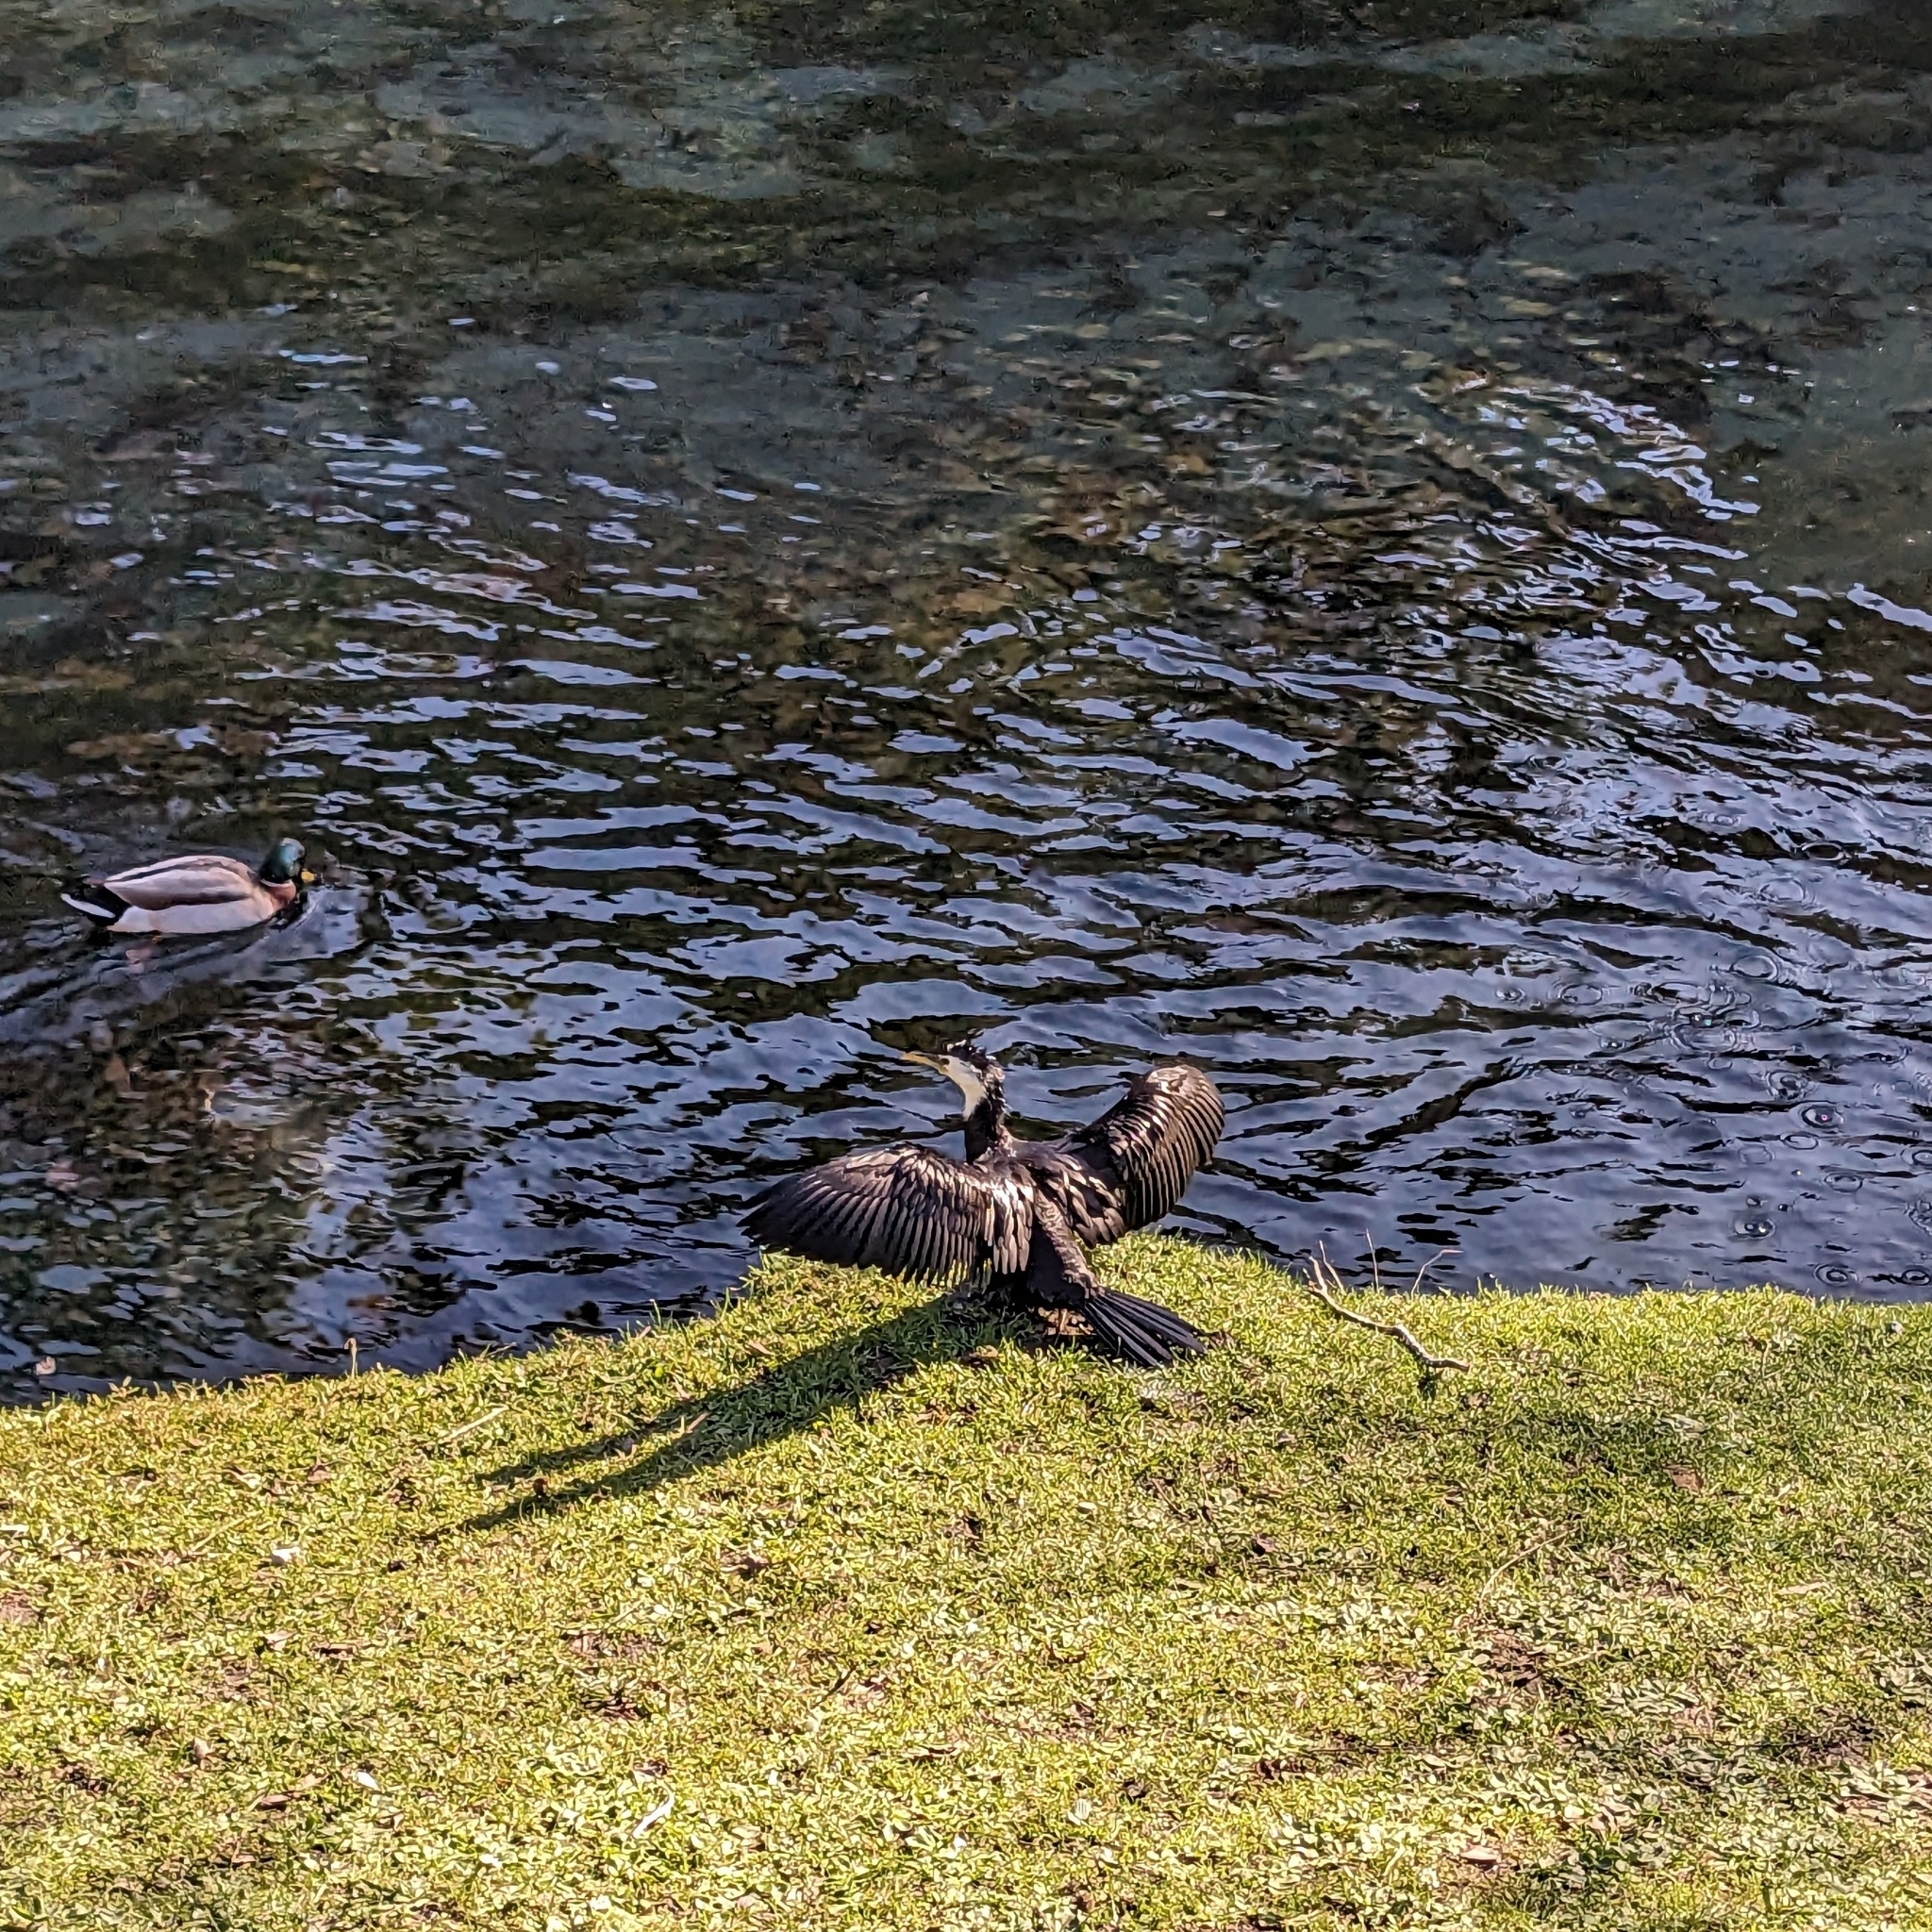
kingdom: Animalia
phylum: Chordata
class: Aves
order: Suliformes
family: Phalacrocoracidae
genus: Microcarbo
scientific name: Microcarbo melanoleucos
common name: Little pied cormorant
